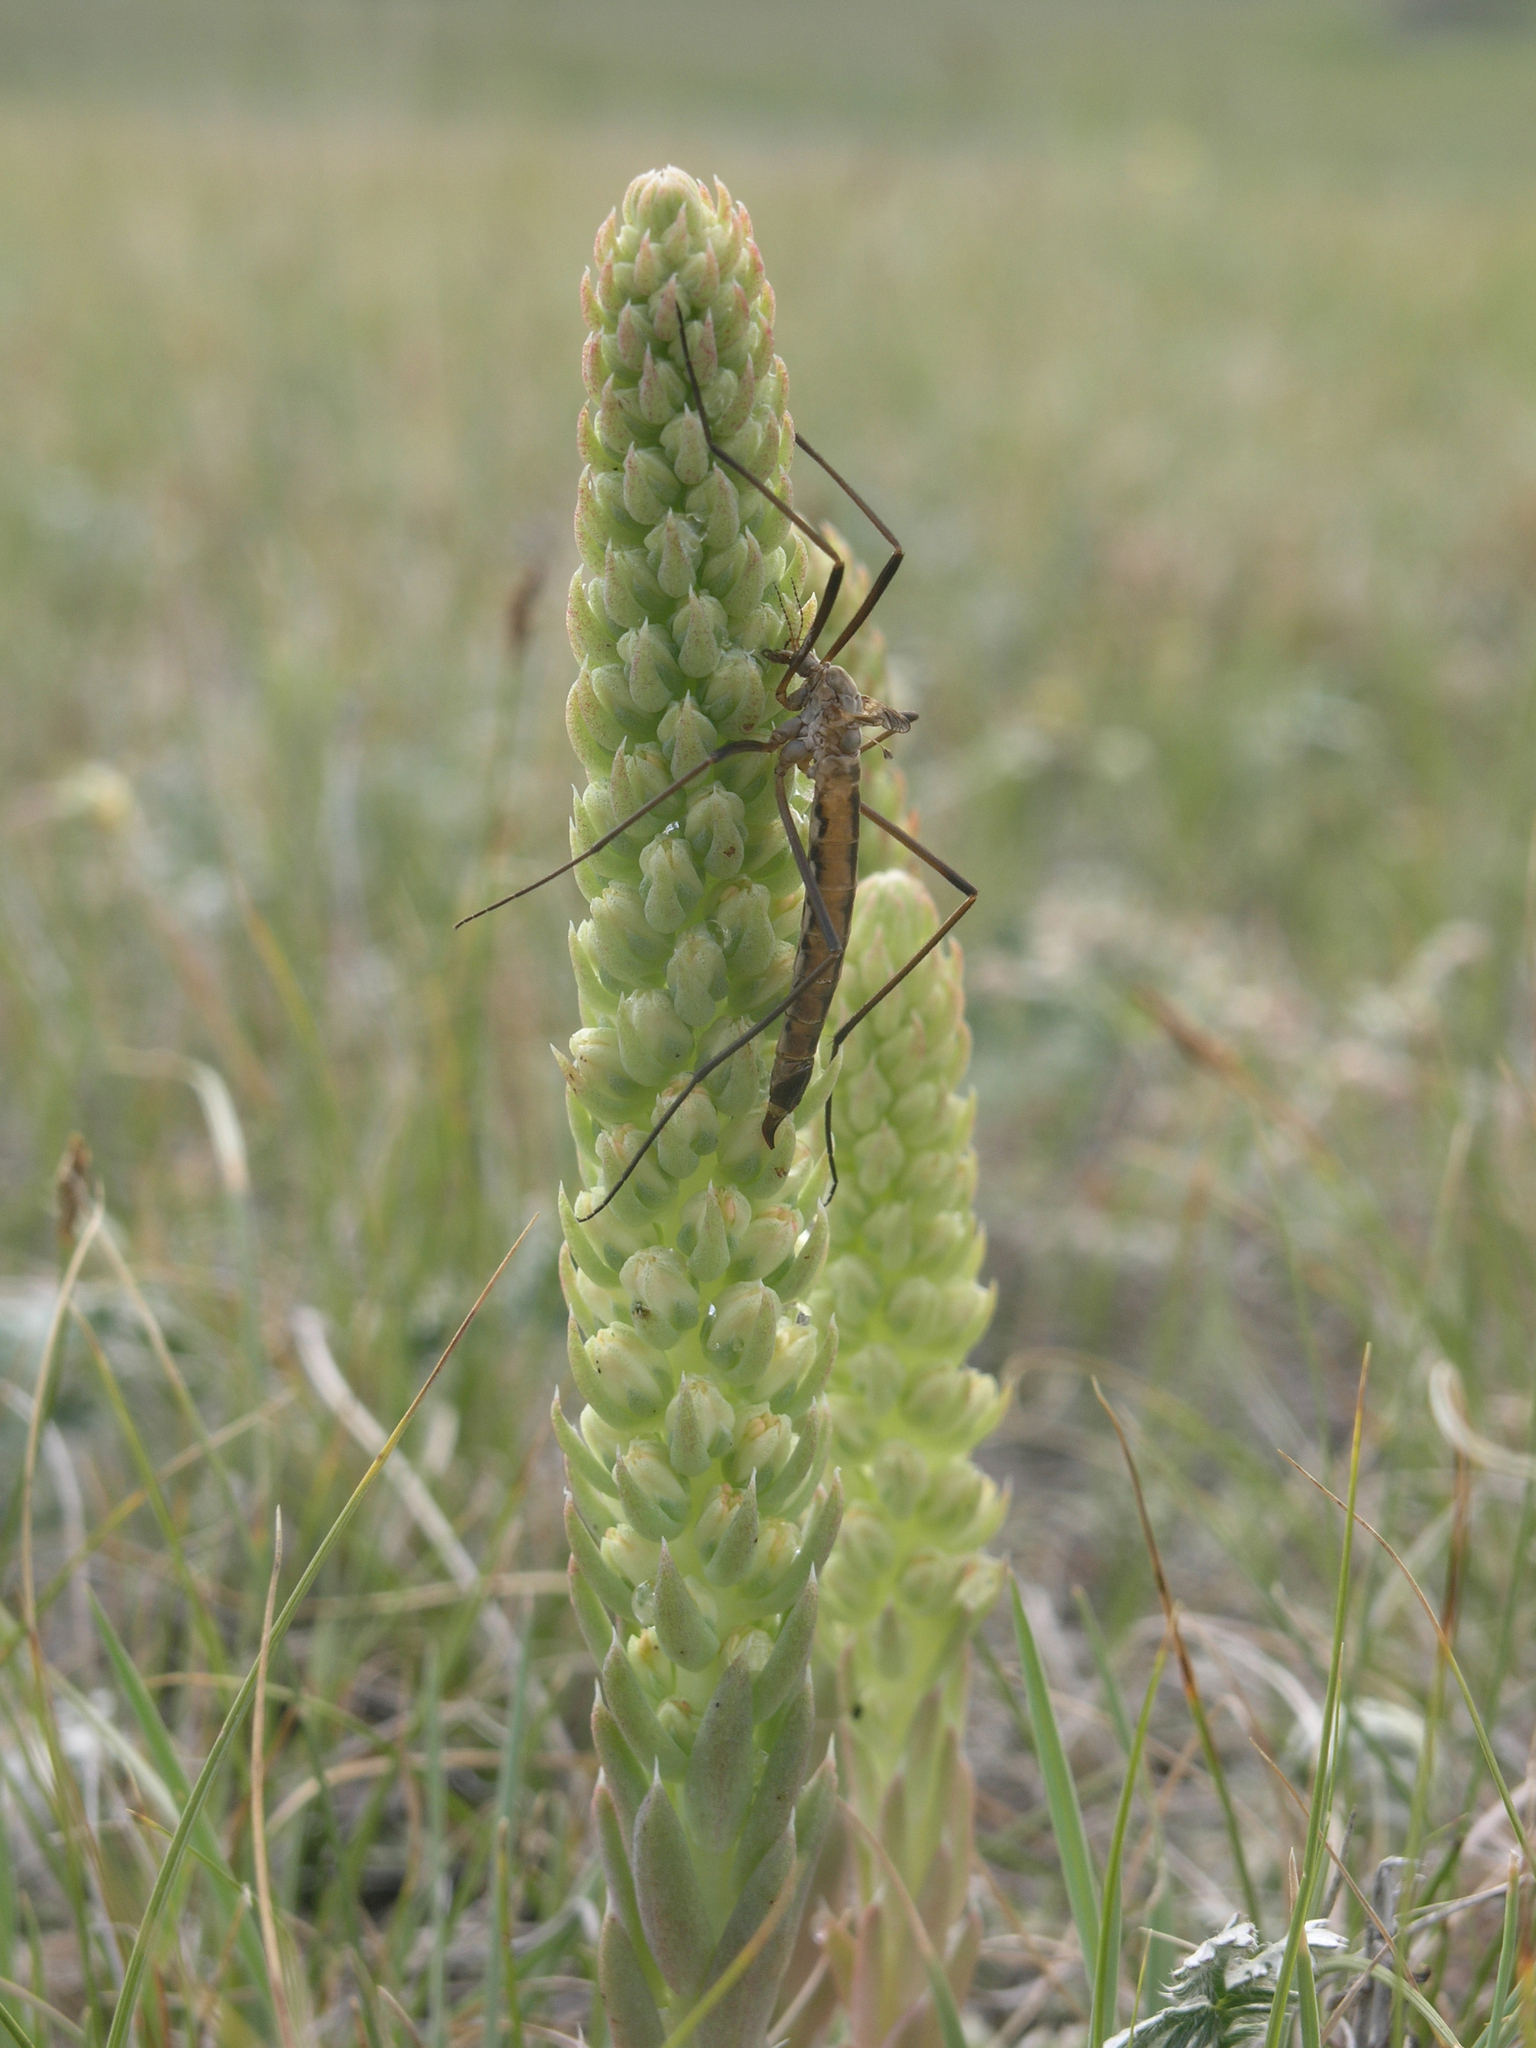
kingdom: Plantae
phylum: Tracheophyta
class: Magnoliopsida
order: Saxifragales
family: Crassulaceae
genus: Orostachys
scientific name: Orostachys spinosa
